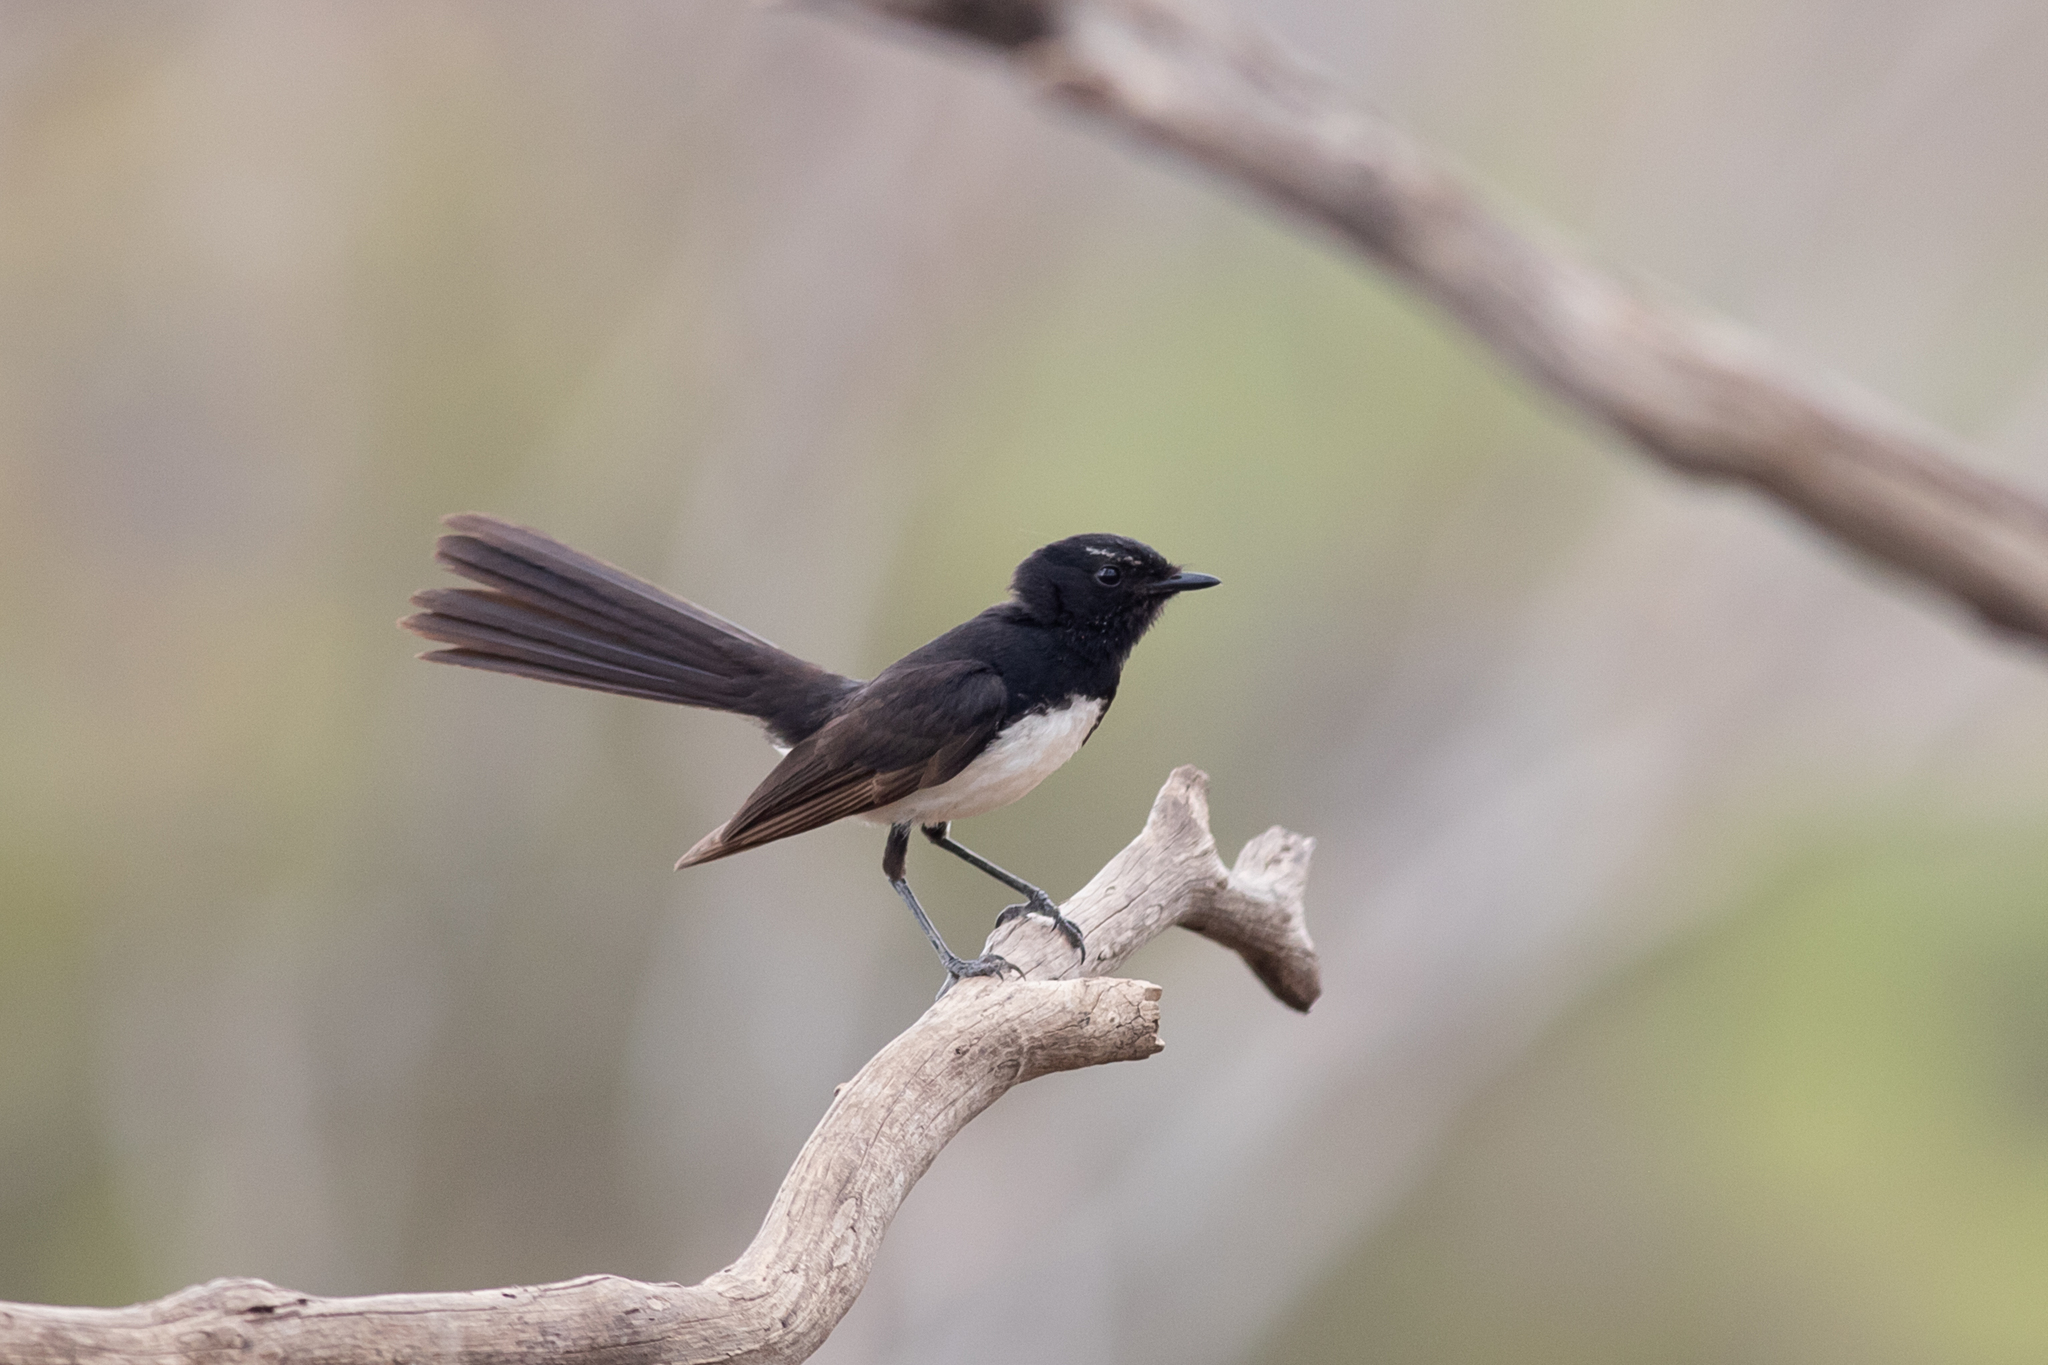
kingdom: Animalia
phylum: Chordata
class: Aves
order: Passeriformes
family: Rhipiduridae
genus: Rhipidura
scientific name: Rhipidura leucophrys
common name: Willie wagtail
